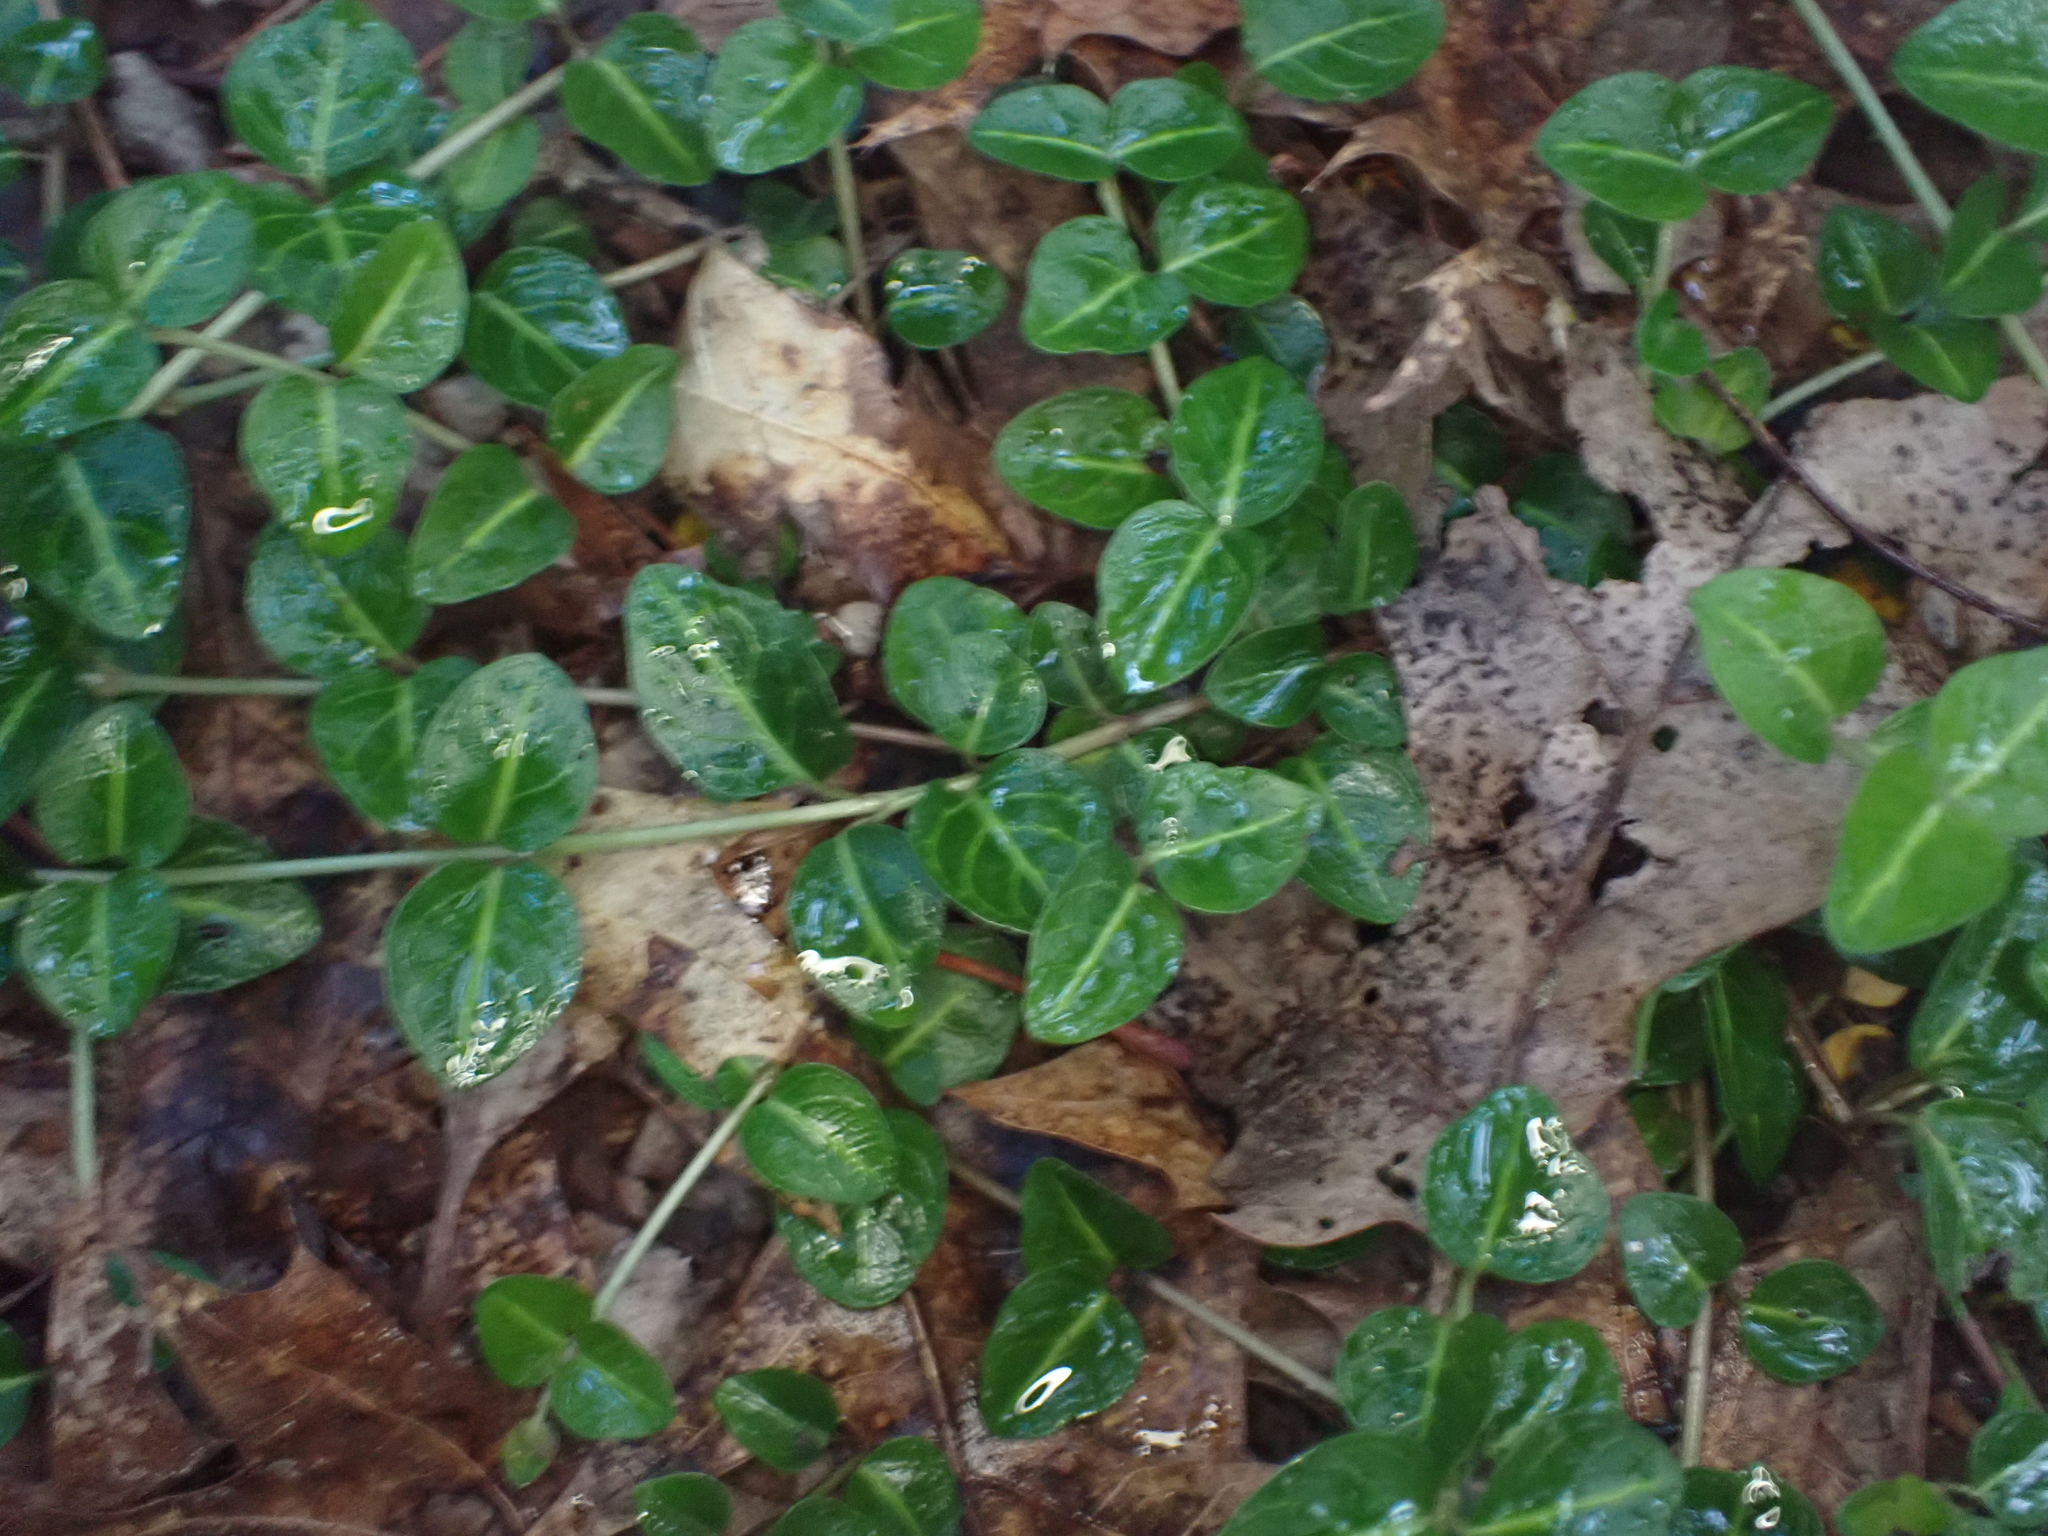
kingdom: Plantae
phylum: Tracheophyta
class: Magnoliopsida
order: Gentianales
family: Rubiaceae
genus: Mitchella
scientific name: Mitchella repens
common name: Partridge-berry
